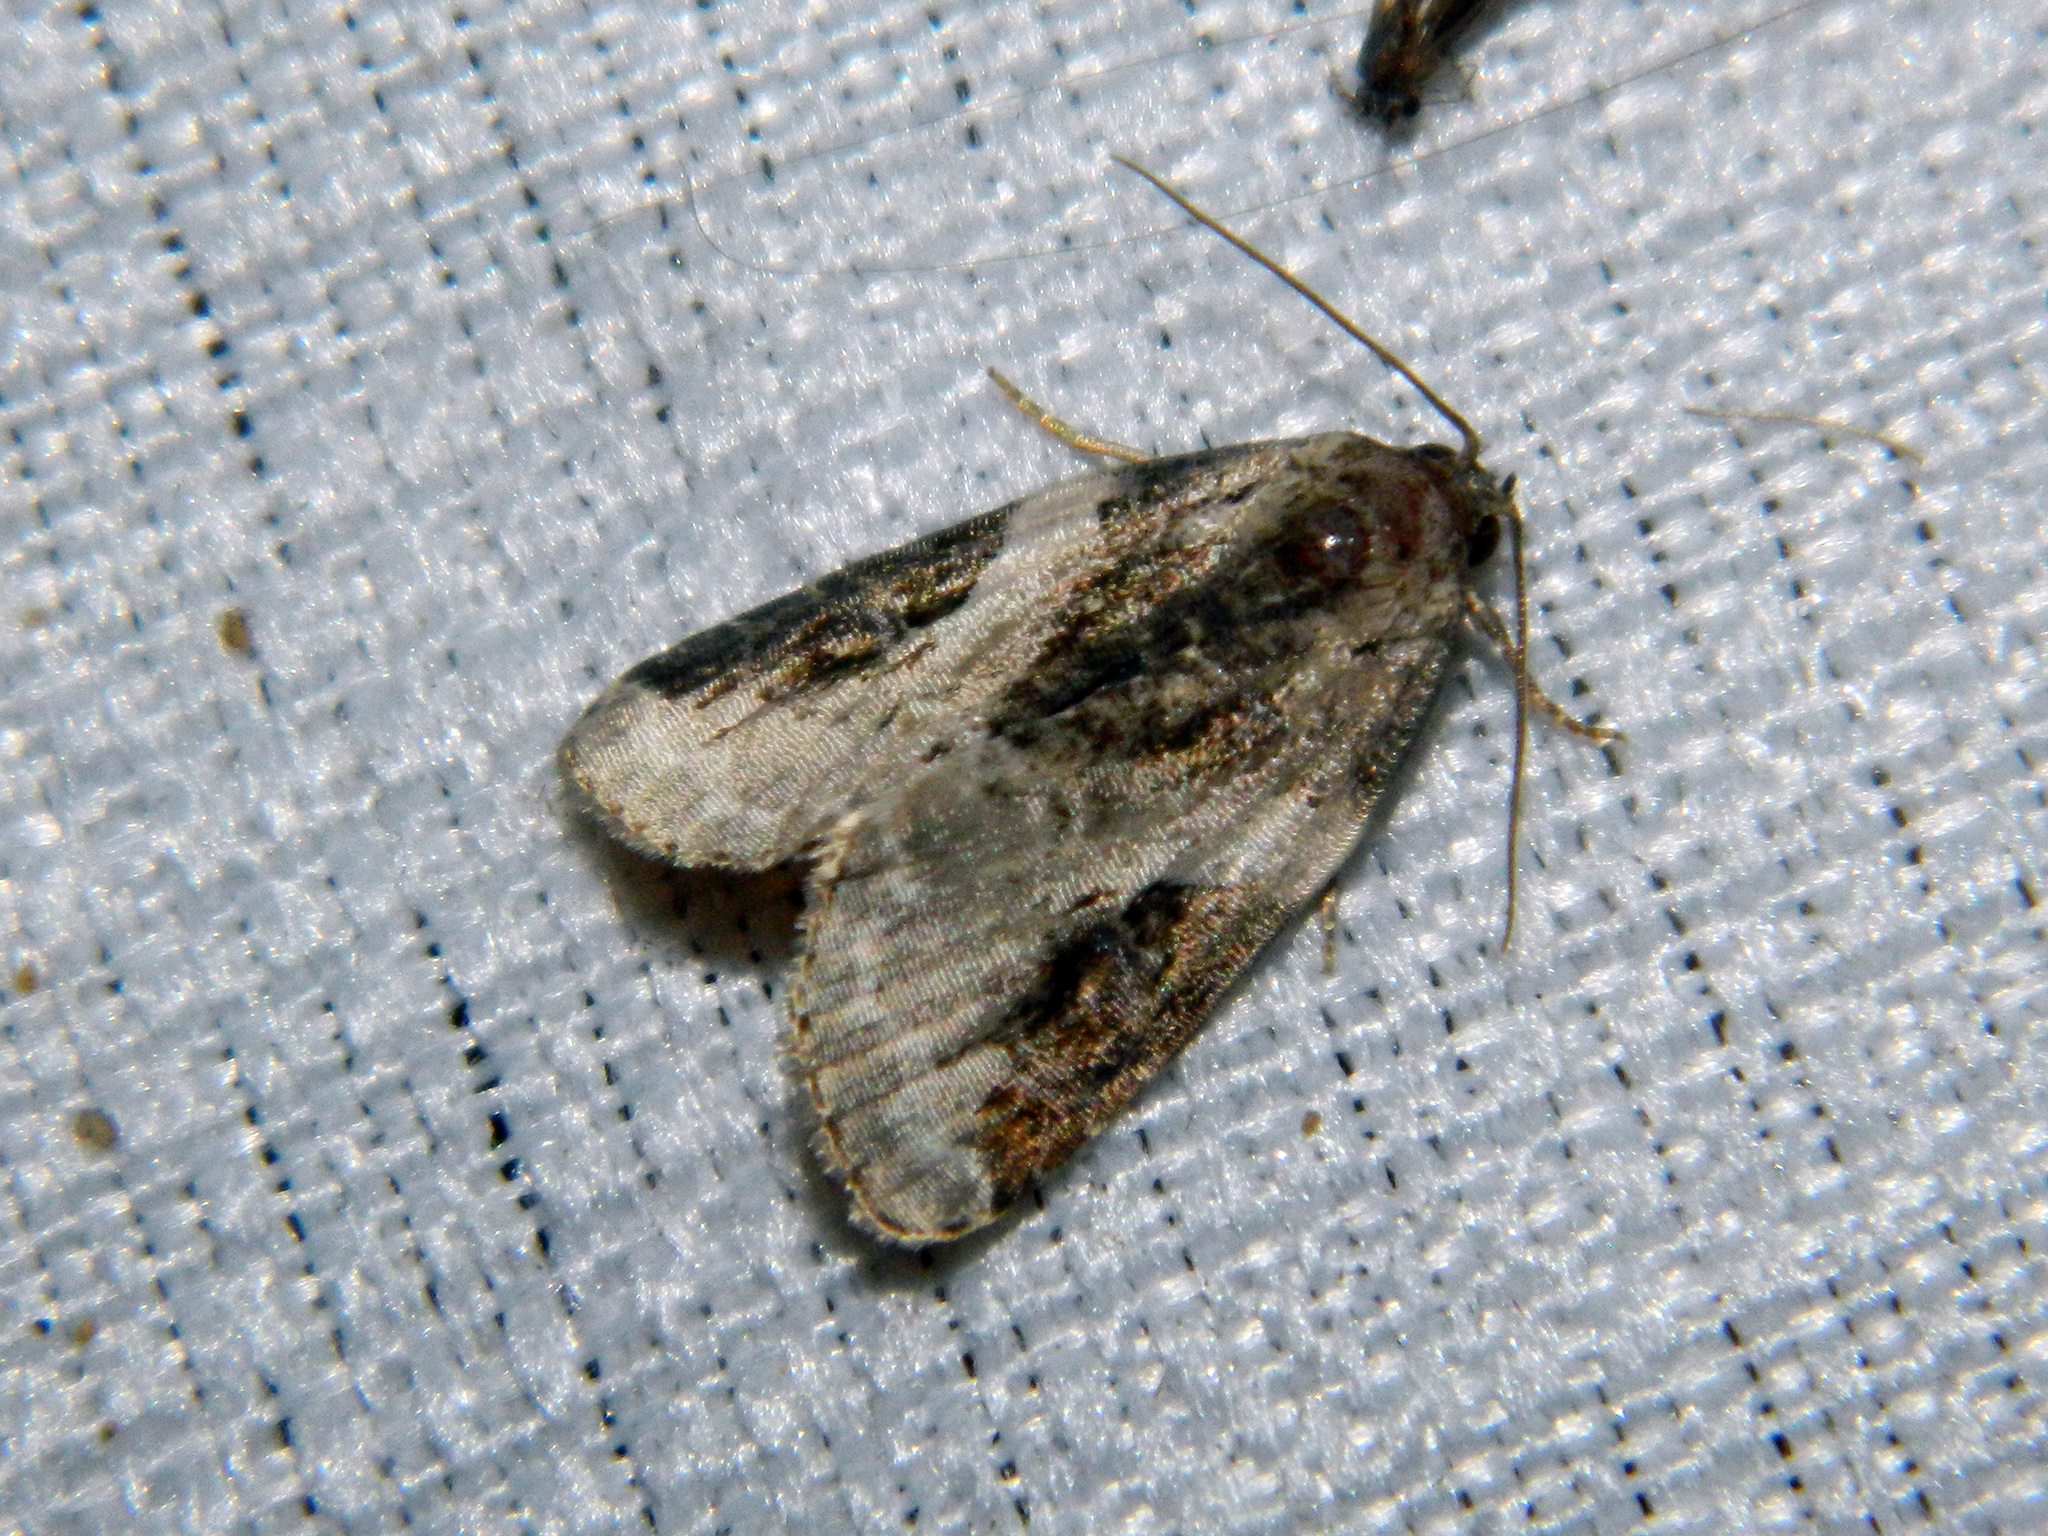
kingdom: Animalia
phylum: Arthropoda
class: Insecta
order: Lepidoptera
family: Noctuidae
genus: Pseudeustrotia
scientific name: Pseudeustrotia carneola
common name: Pink-barred lithacodia moth
